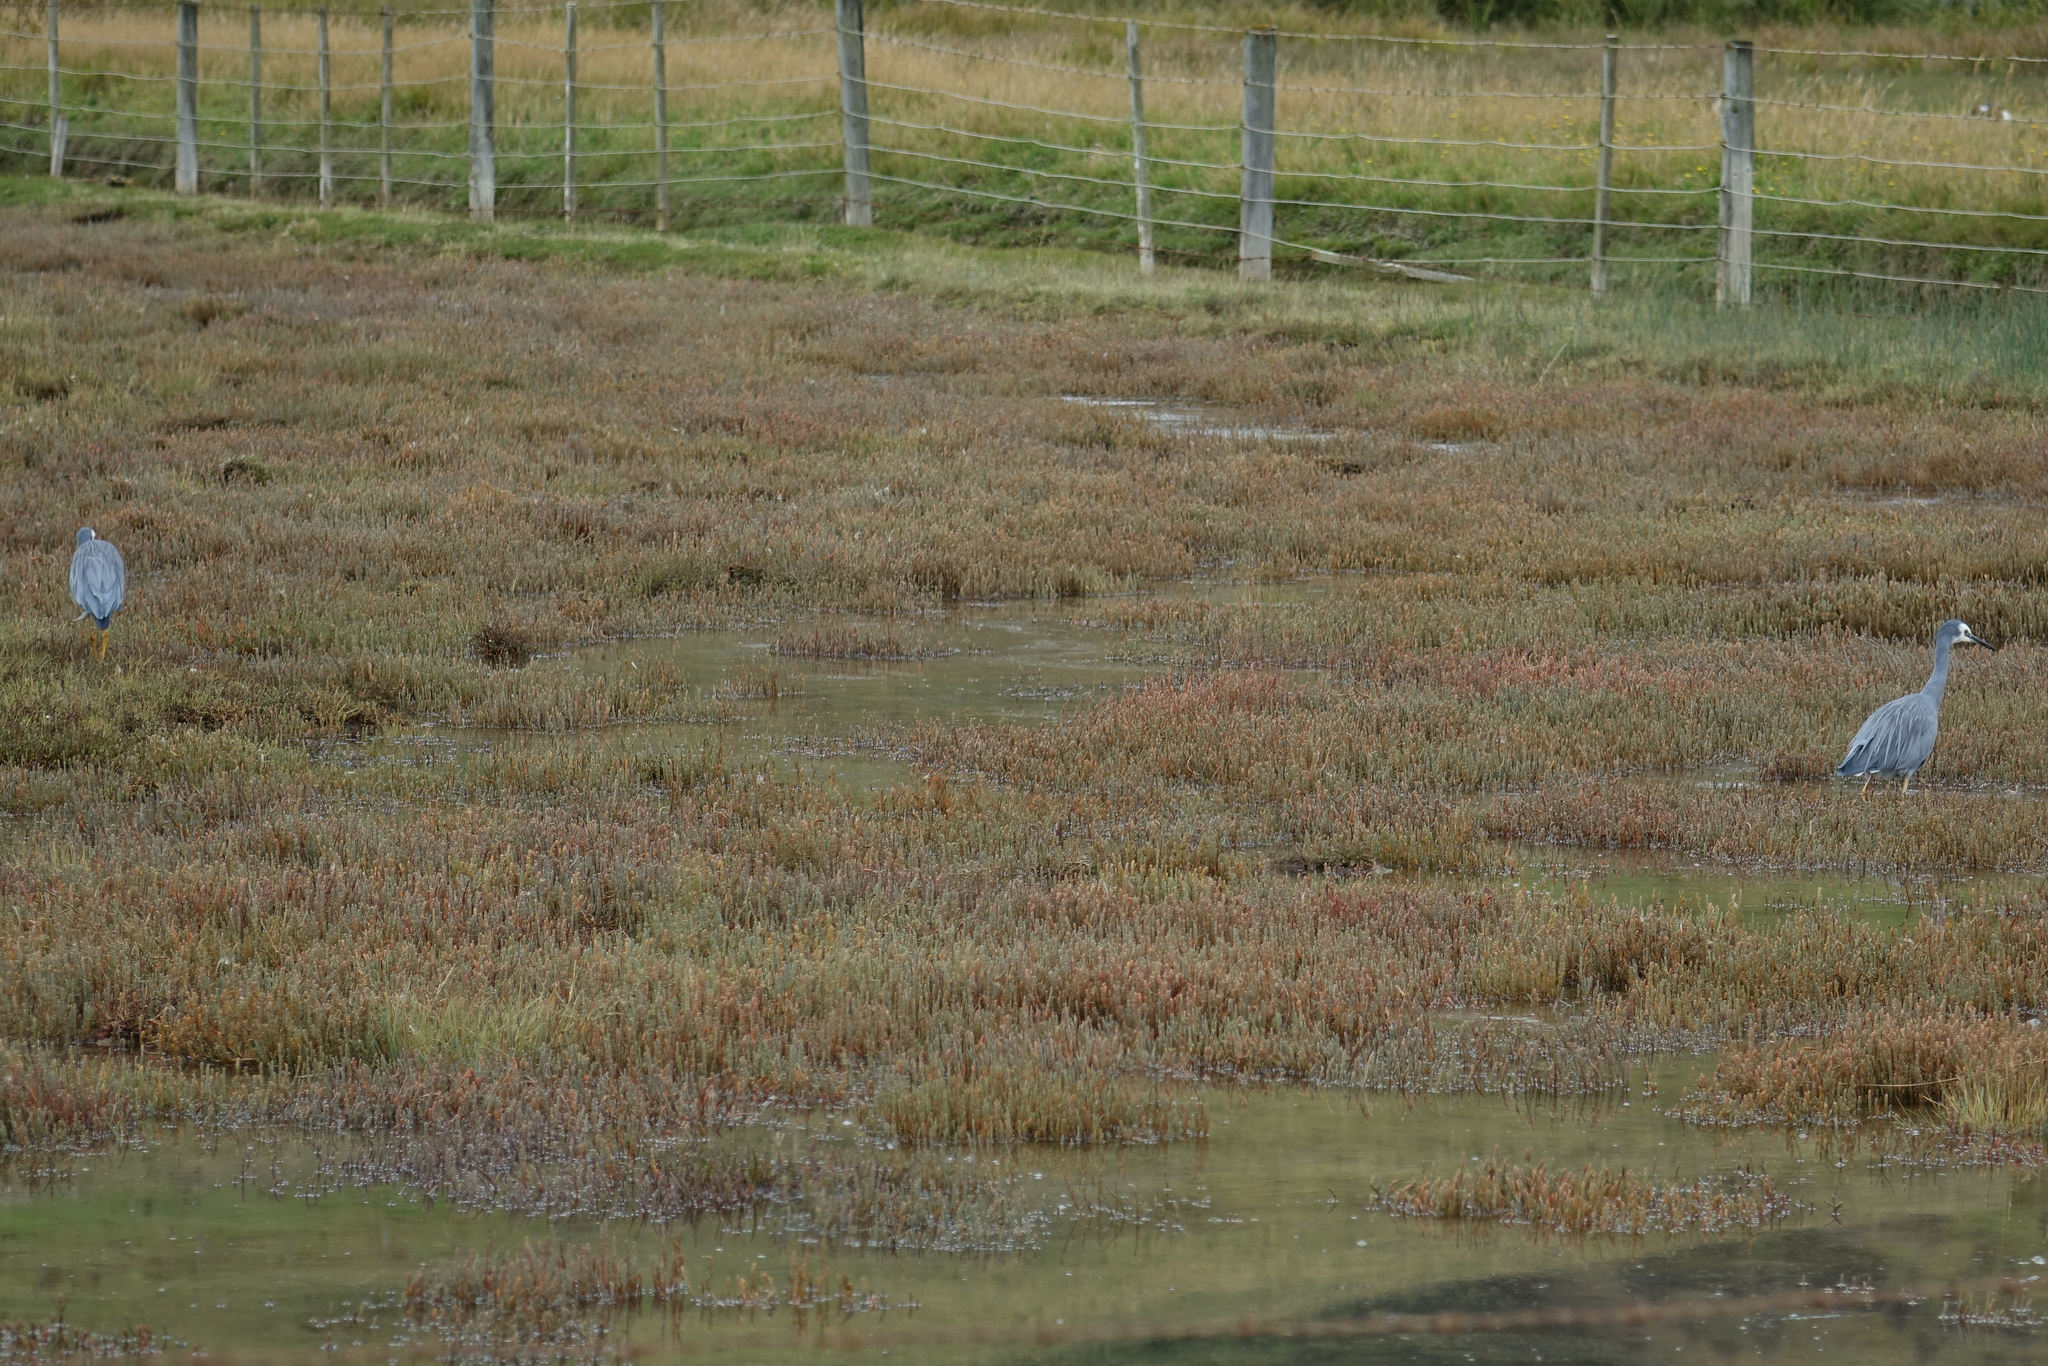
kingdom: Animalia
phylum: Chordata
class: Aves
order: Pelecaniformes
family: Ardeidae
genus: Egretta
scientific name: Egretta novaehollandiae
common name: White-faced heron
